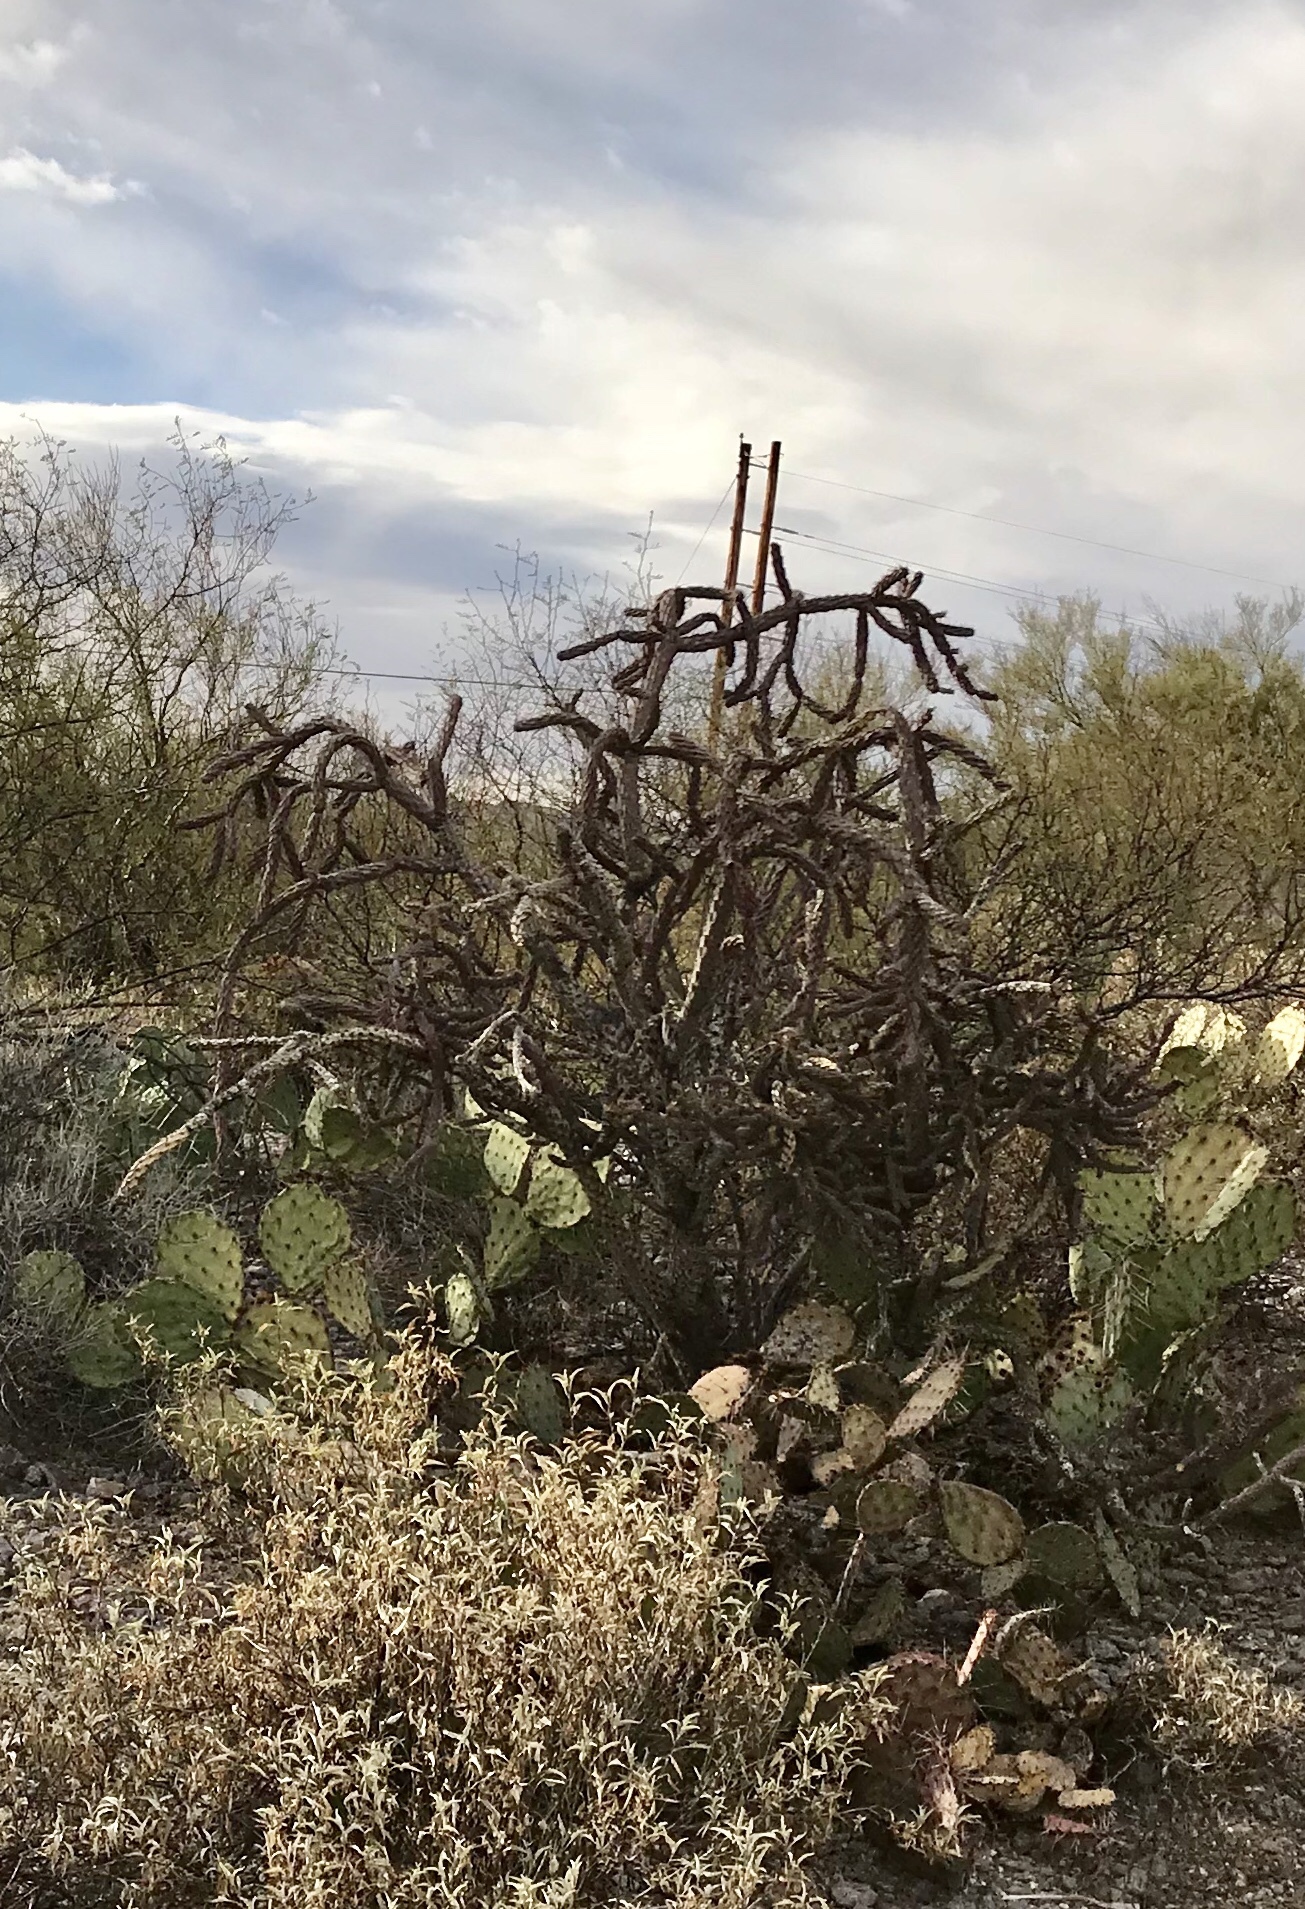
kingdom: Plantae
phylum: Tracheophyta
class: Magnoliopsida
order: Caryophyllales
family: Cactaceae
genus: Cylindropuntia
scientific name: Cylindropuntia thurberi
